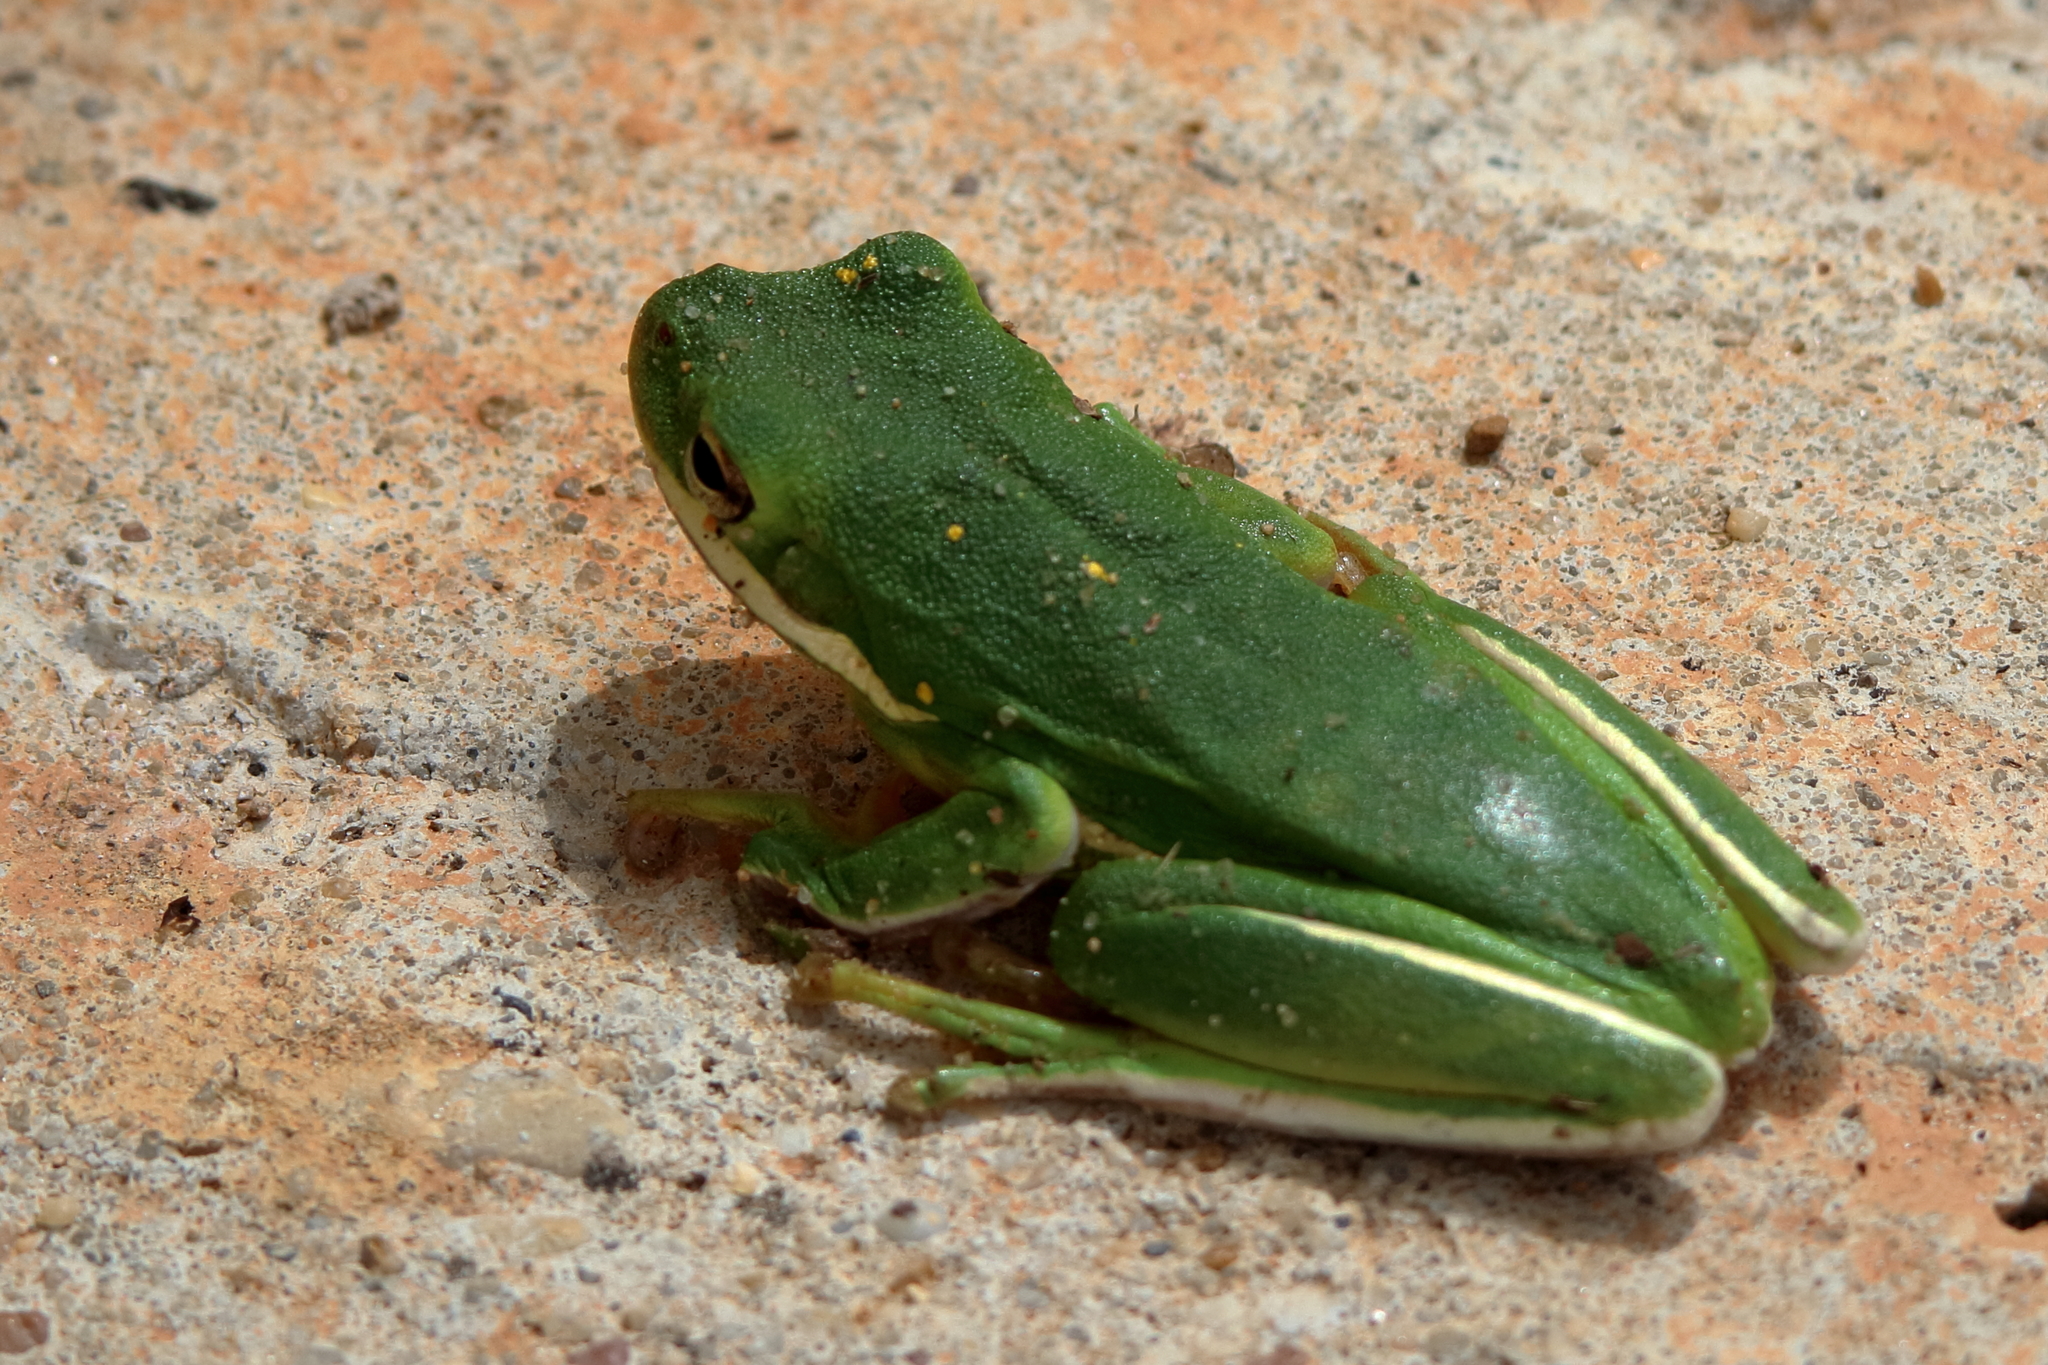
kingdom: Animalia
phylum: Chordata
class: Amphibia
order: Anura
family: Hylidae
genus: Dryophytes
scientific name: Dryophytes cinereus
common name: Green treefrog
